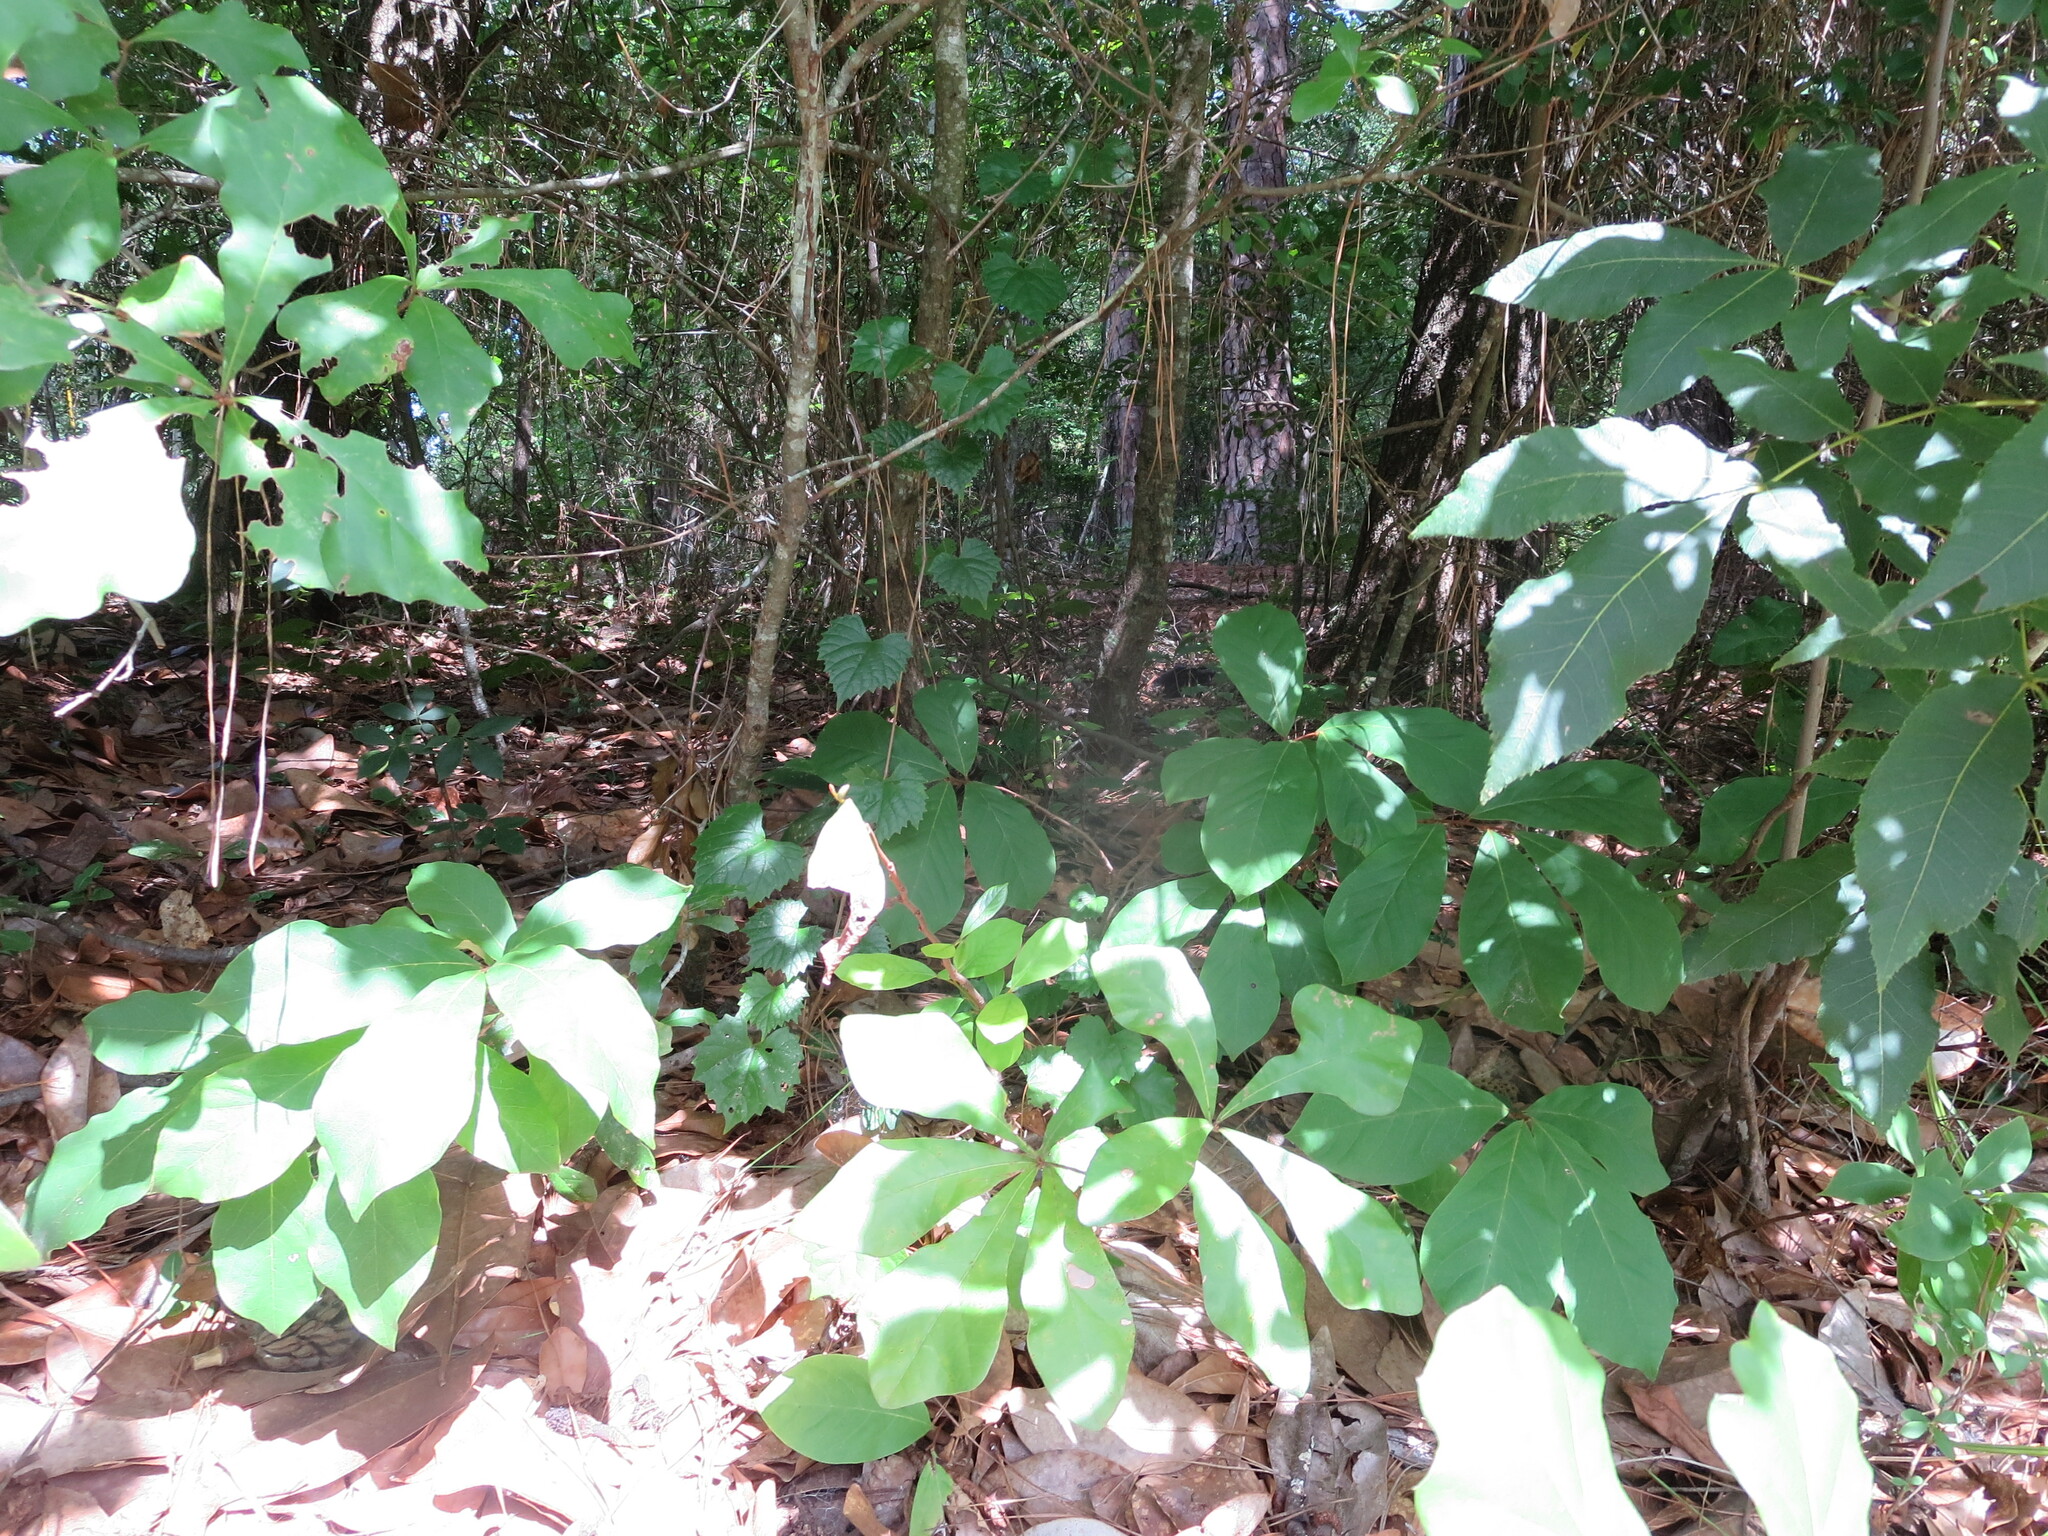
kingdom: Plantae
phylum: Tracheophyta
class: Magnoliopsida
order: Magnoliales
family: Annonaceae
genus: Asimina
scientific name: Asimina parviflora
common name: Dwarf pawpaw
